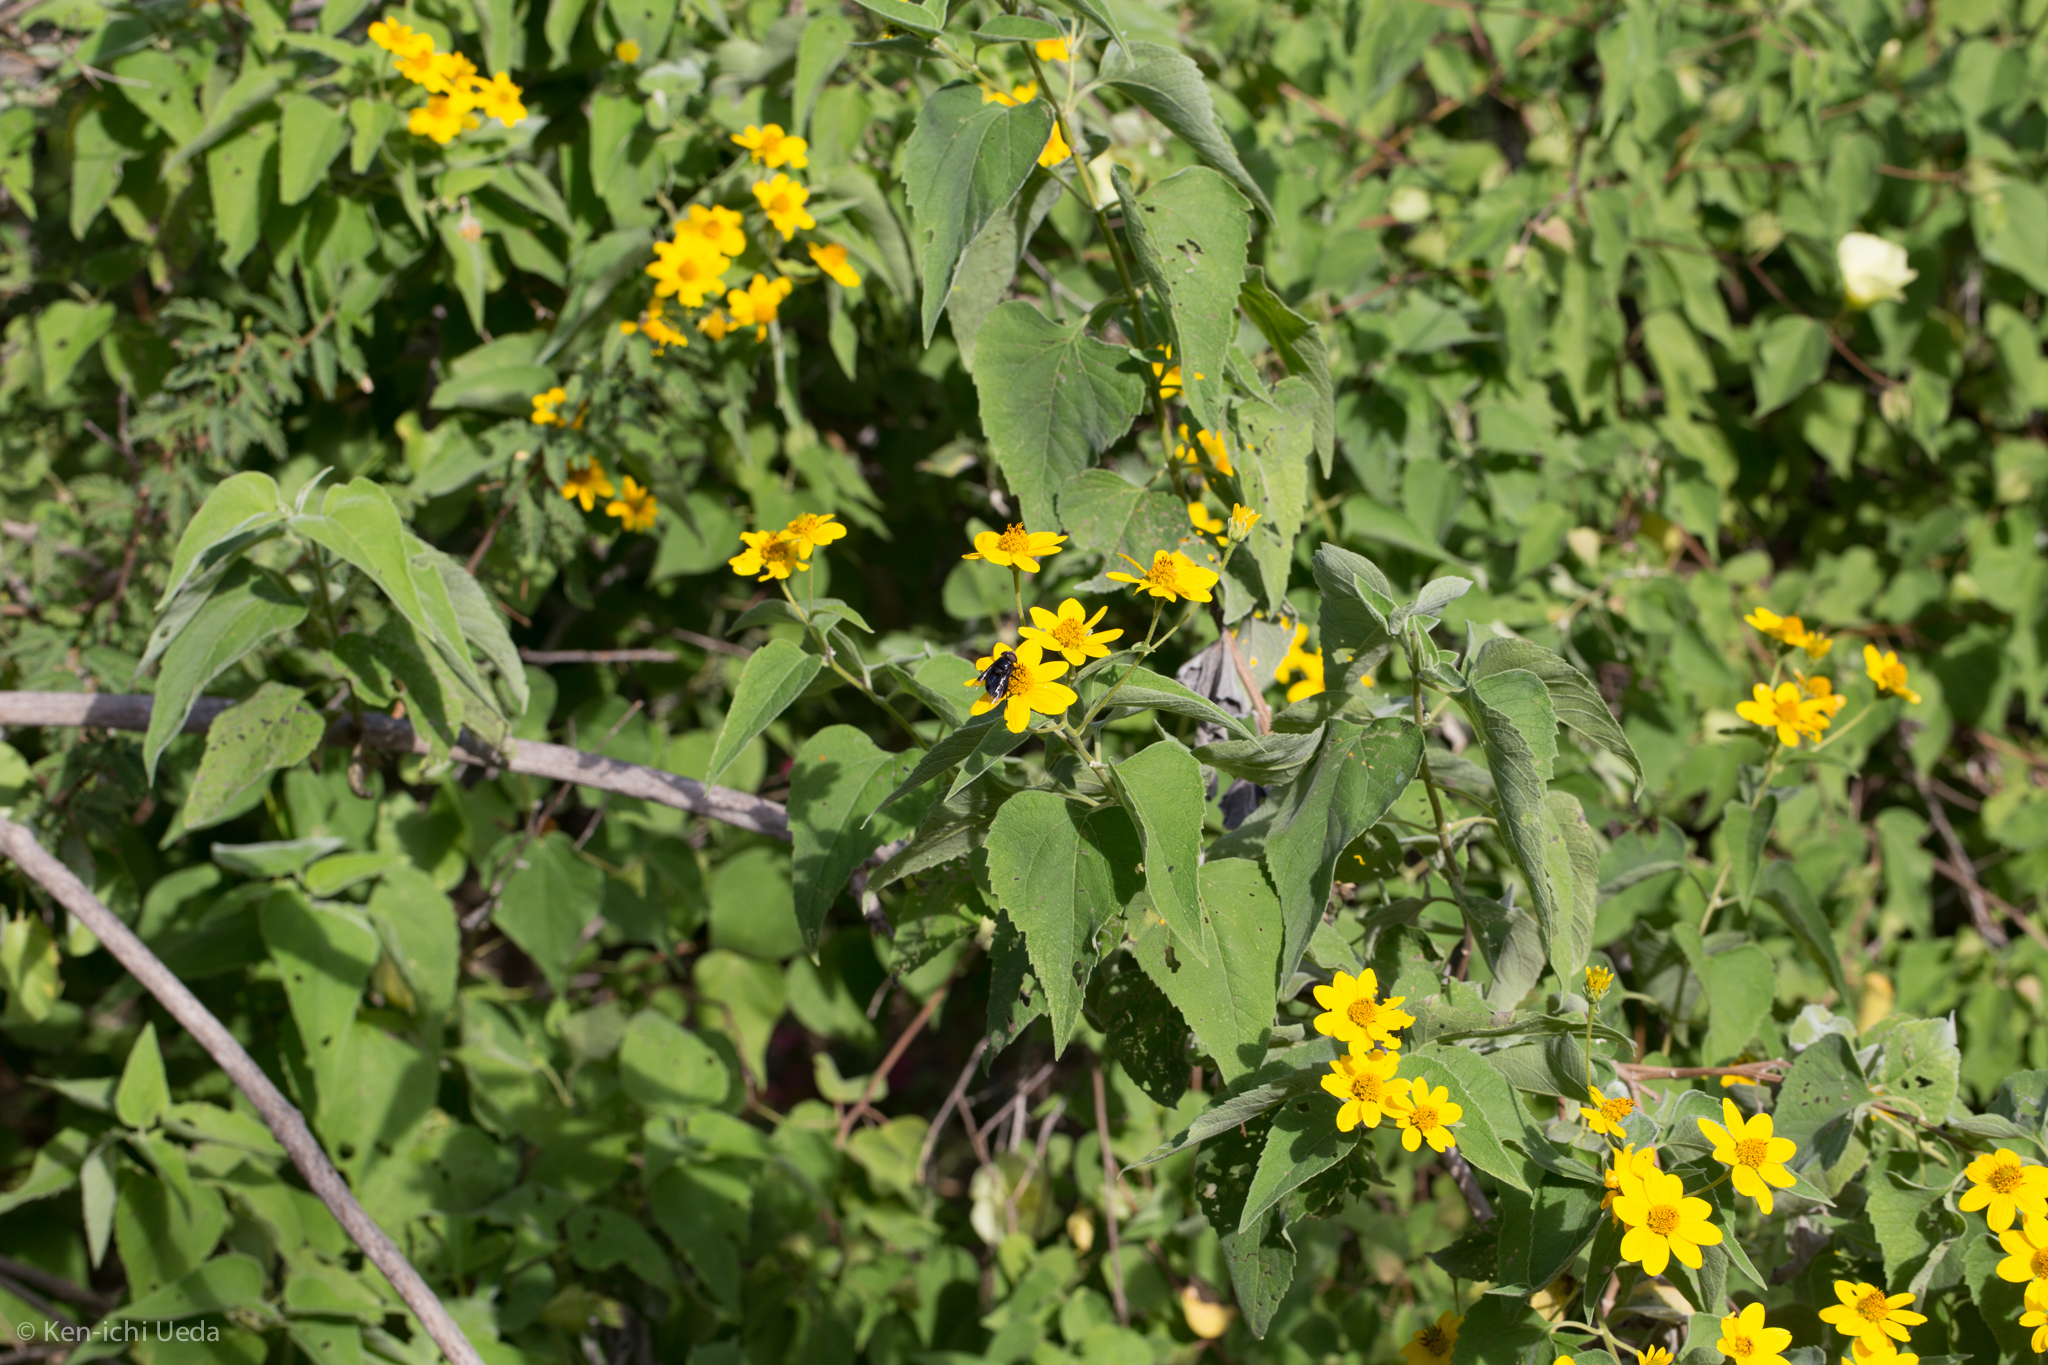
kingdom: Plantae
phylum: Tracheophyta
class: Magnoliopsida
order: Asterales
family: Asteraceae
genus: Bahiopsis
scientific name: Bahiopsis tomentosa
